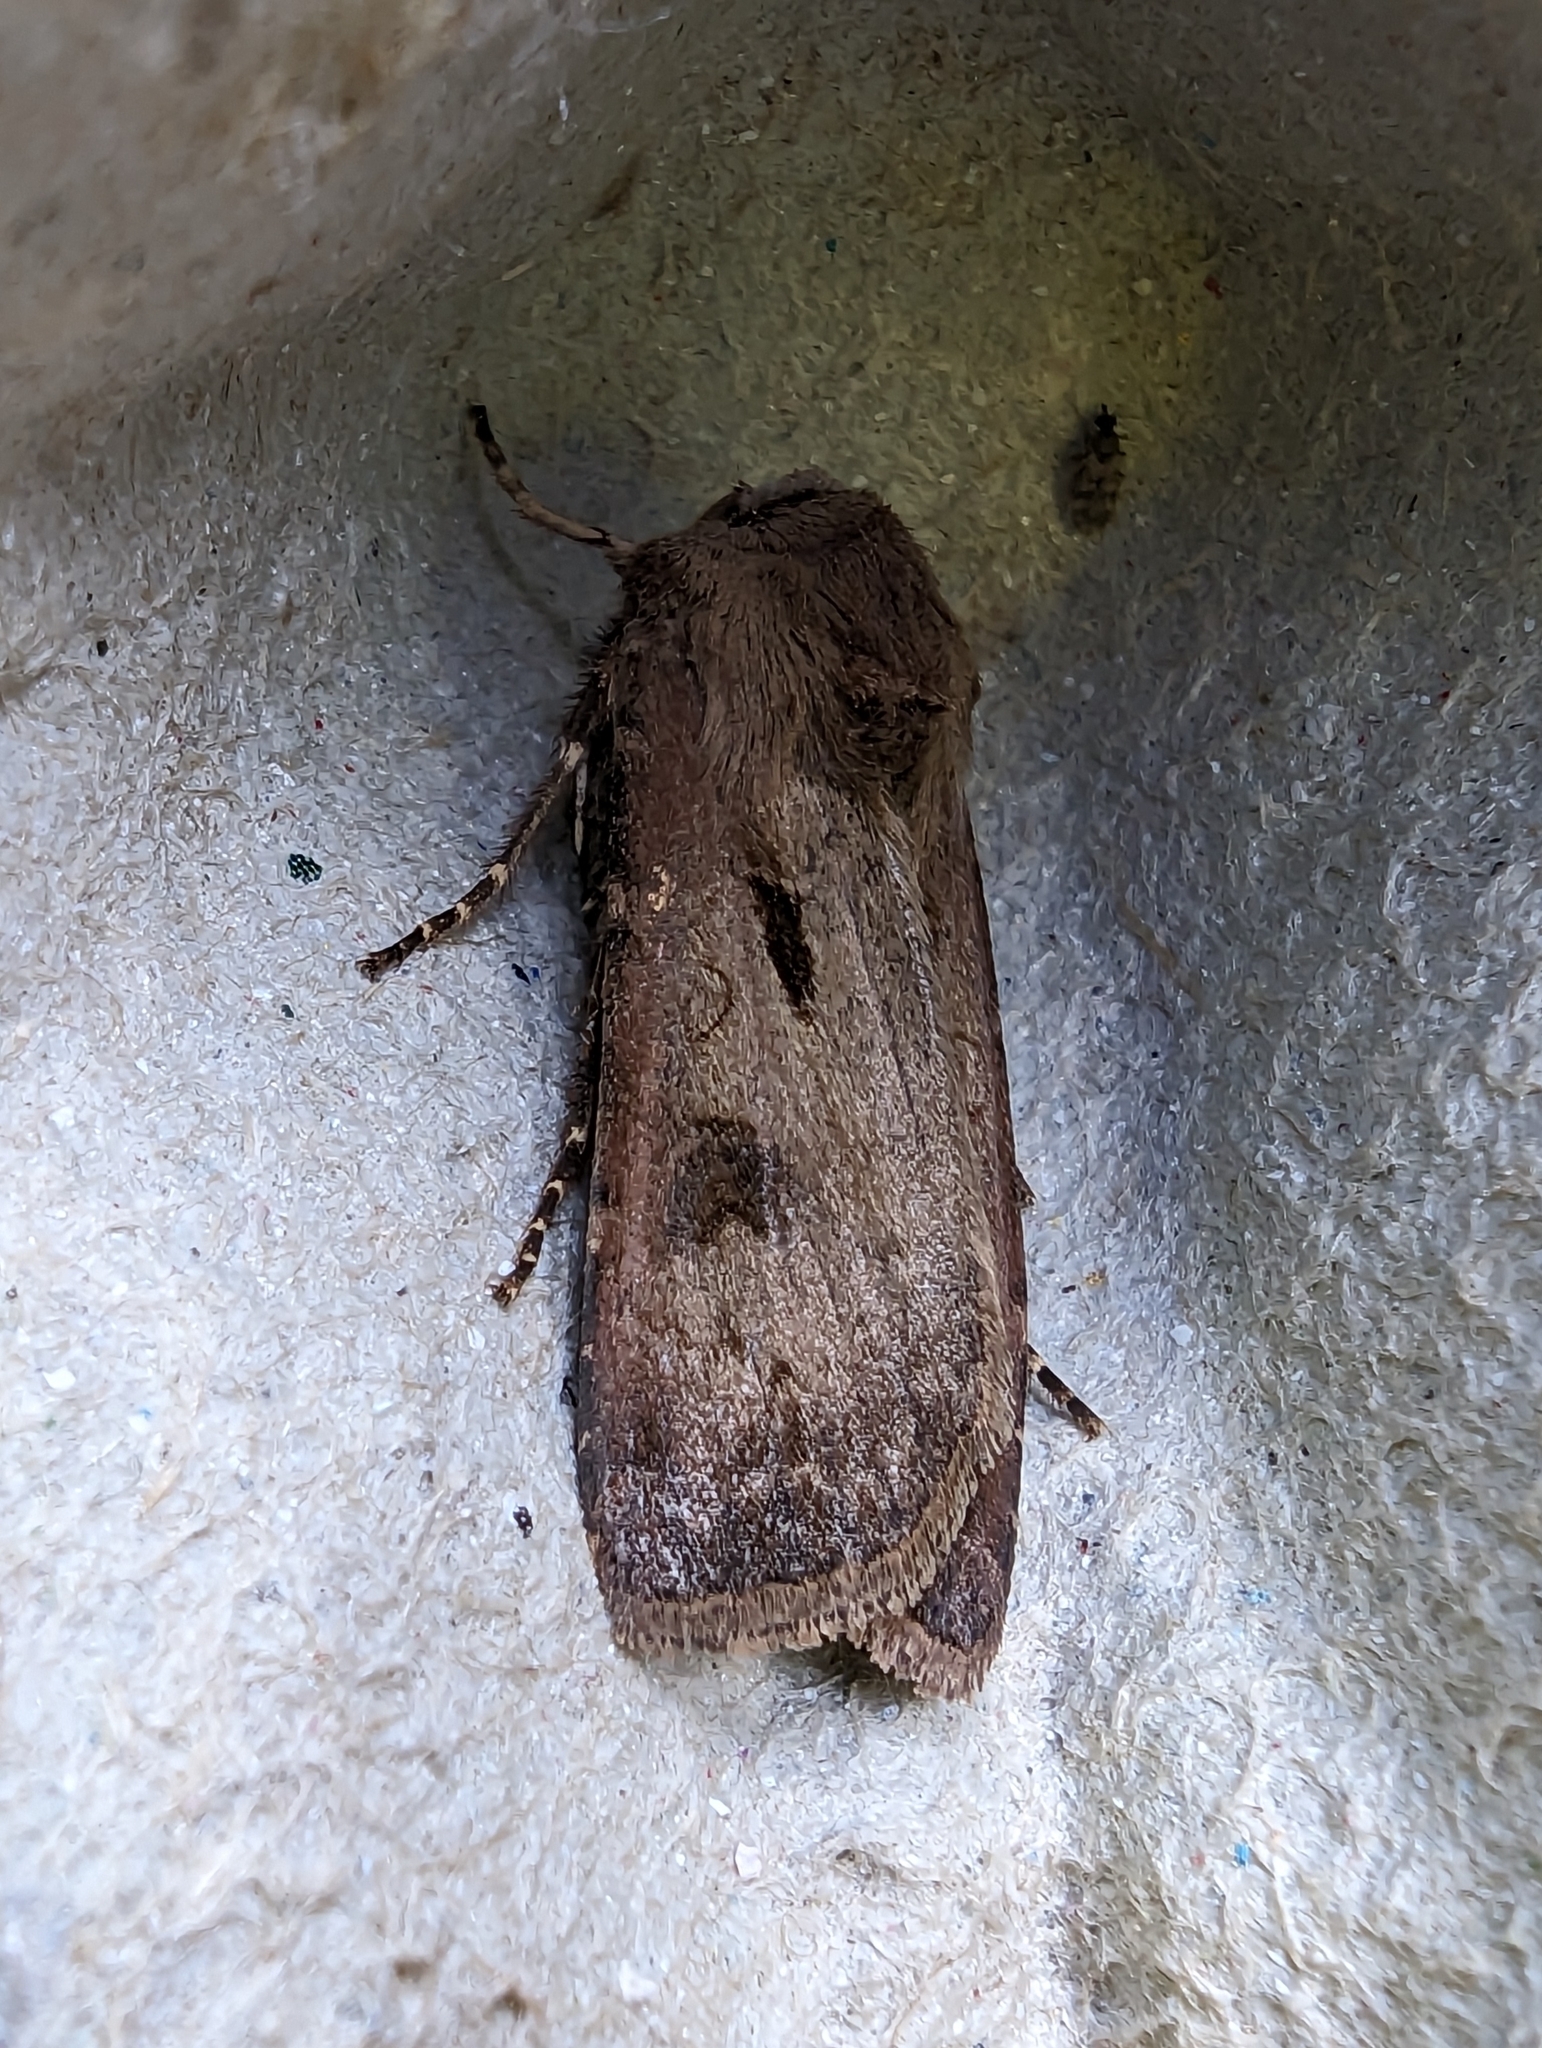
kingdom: Animalia
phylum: Arthropoda
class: Insecta
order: Lepidoptera
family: Noctuidae
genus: Agrotis
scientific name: Agrotis exclamationis
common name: Heart and dart
